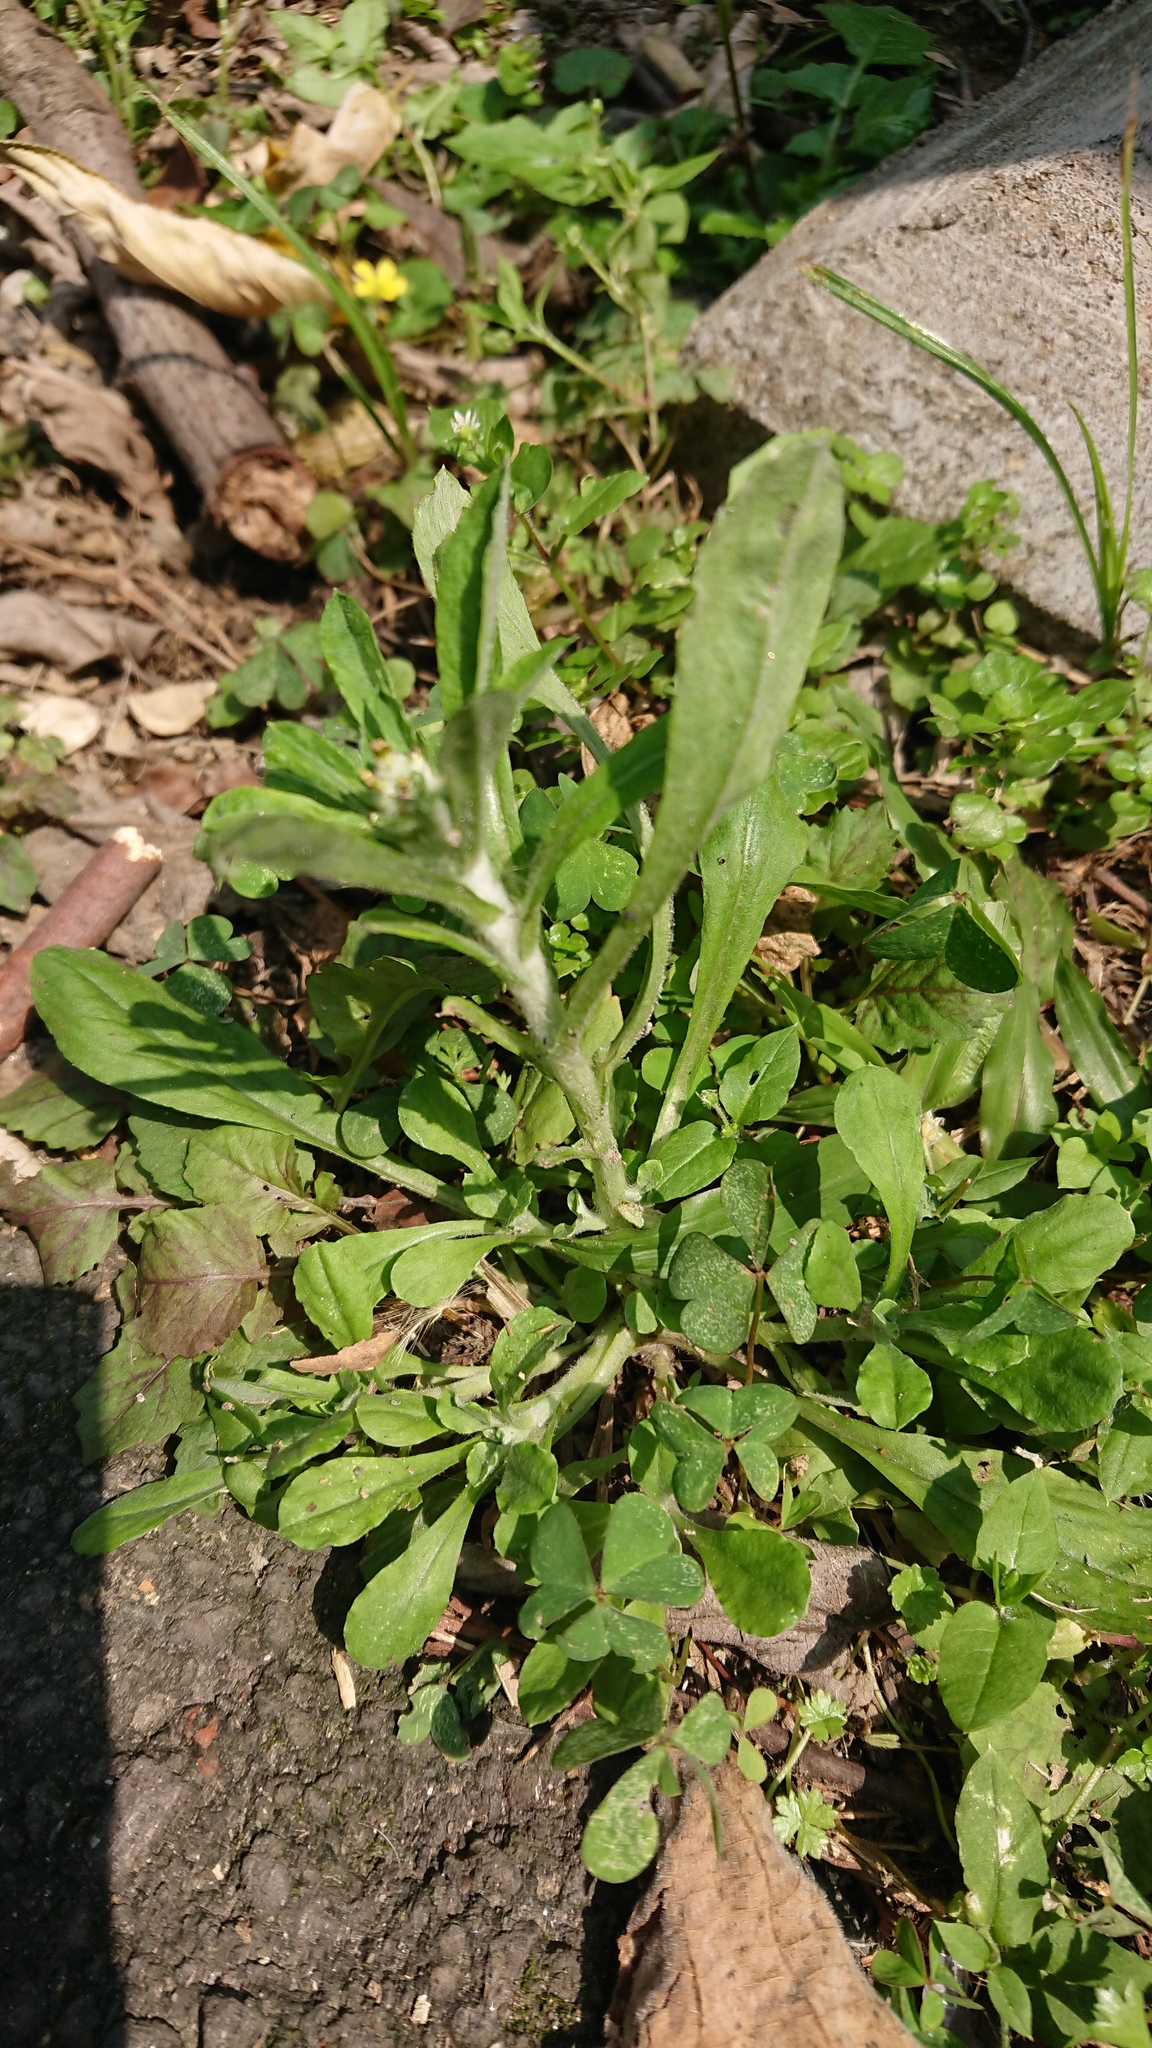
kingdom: Plantae
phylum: Tracheophyta
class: Magnoliopsida
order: Asterales
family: Asteraceae
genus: Gamochaeta
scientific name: Gamochaeta purpurea
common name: Purple cudweed
